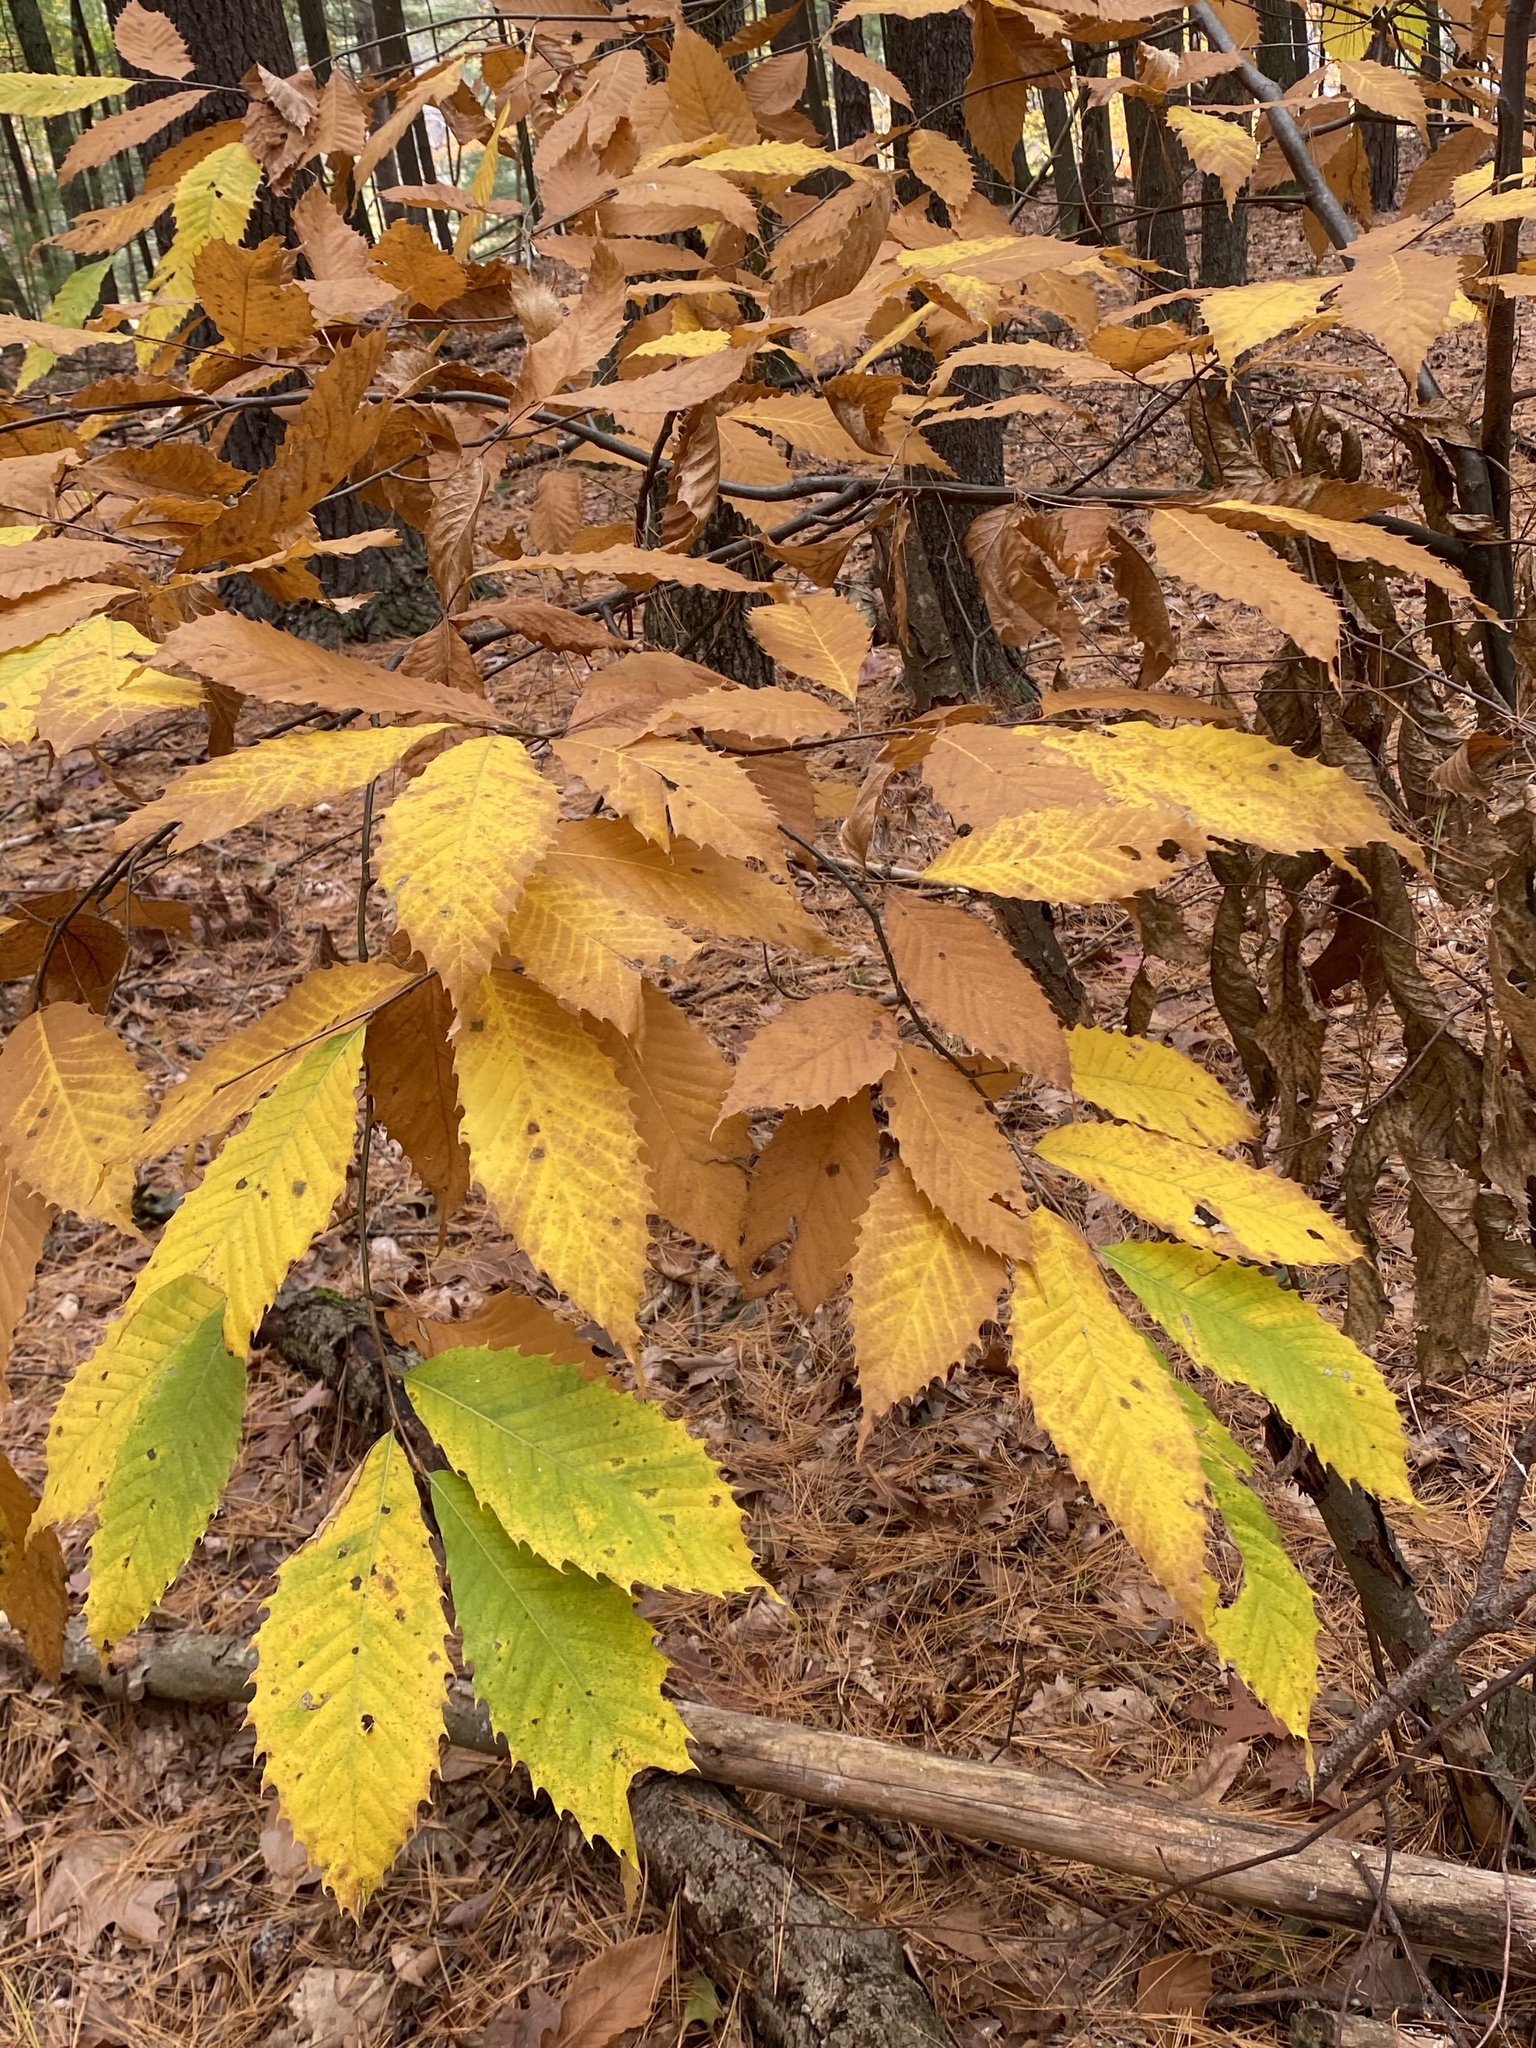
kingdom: Plantae
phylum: Tracheophyta
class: Magnoliopsida
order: Fagales
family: Fagaceae
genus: Castanea
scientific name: Castanea dentata
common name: American chestnut
